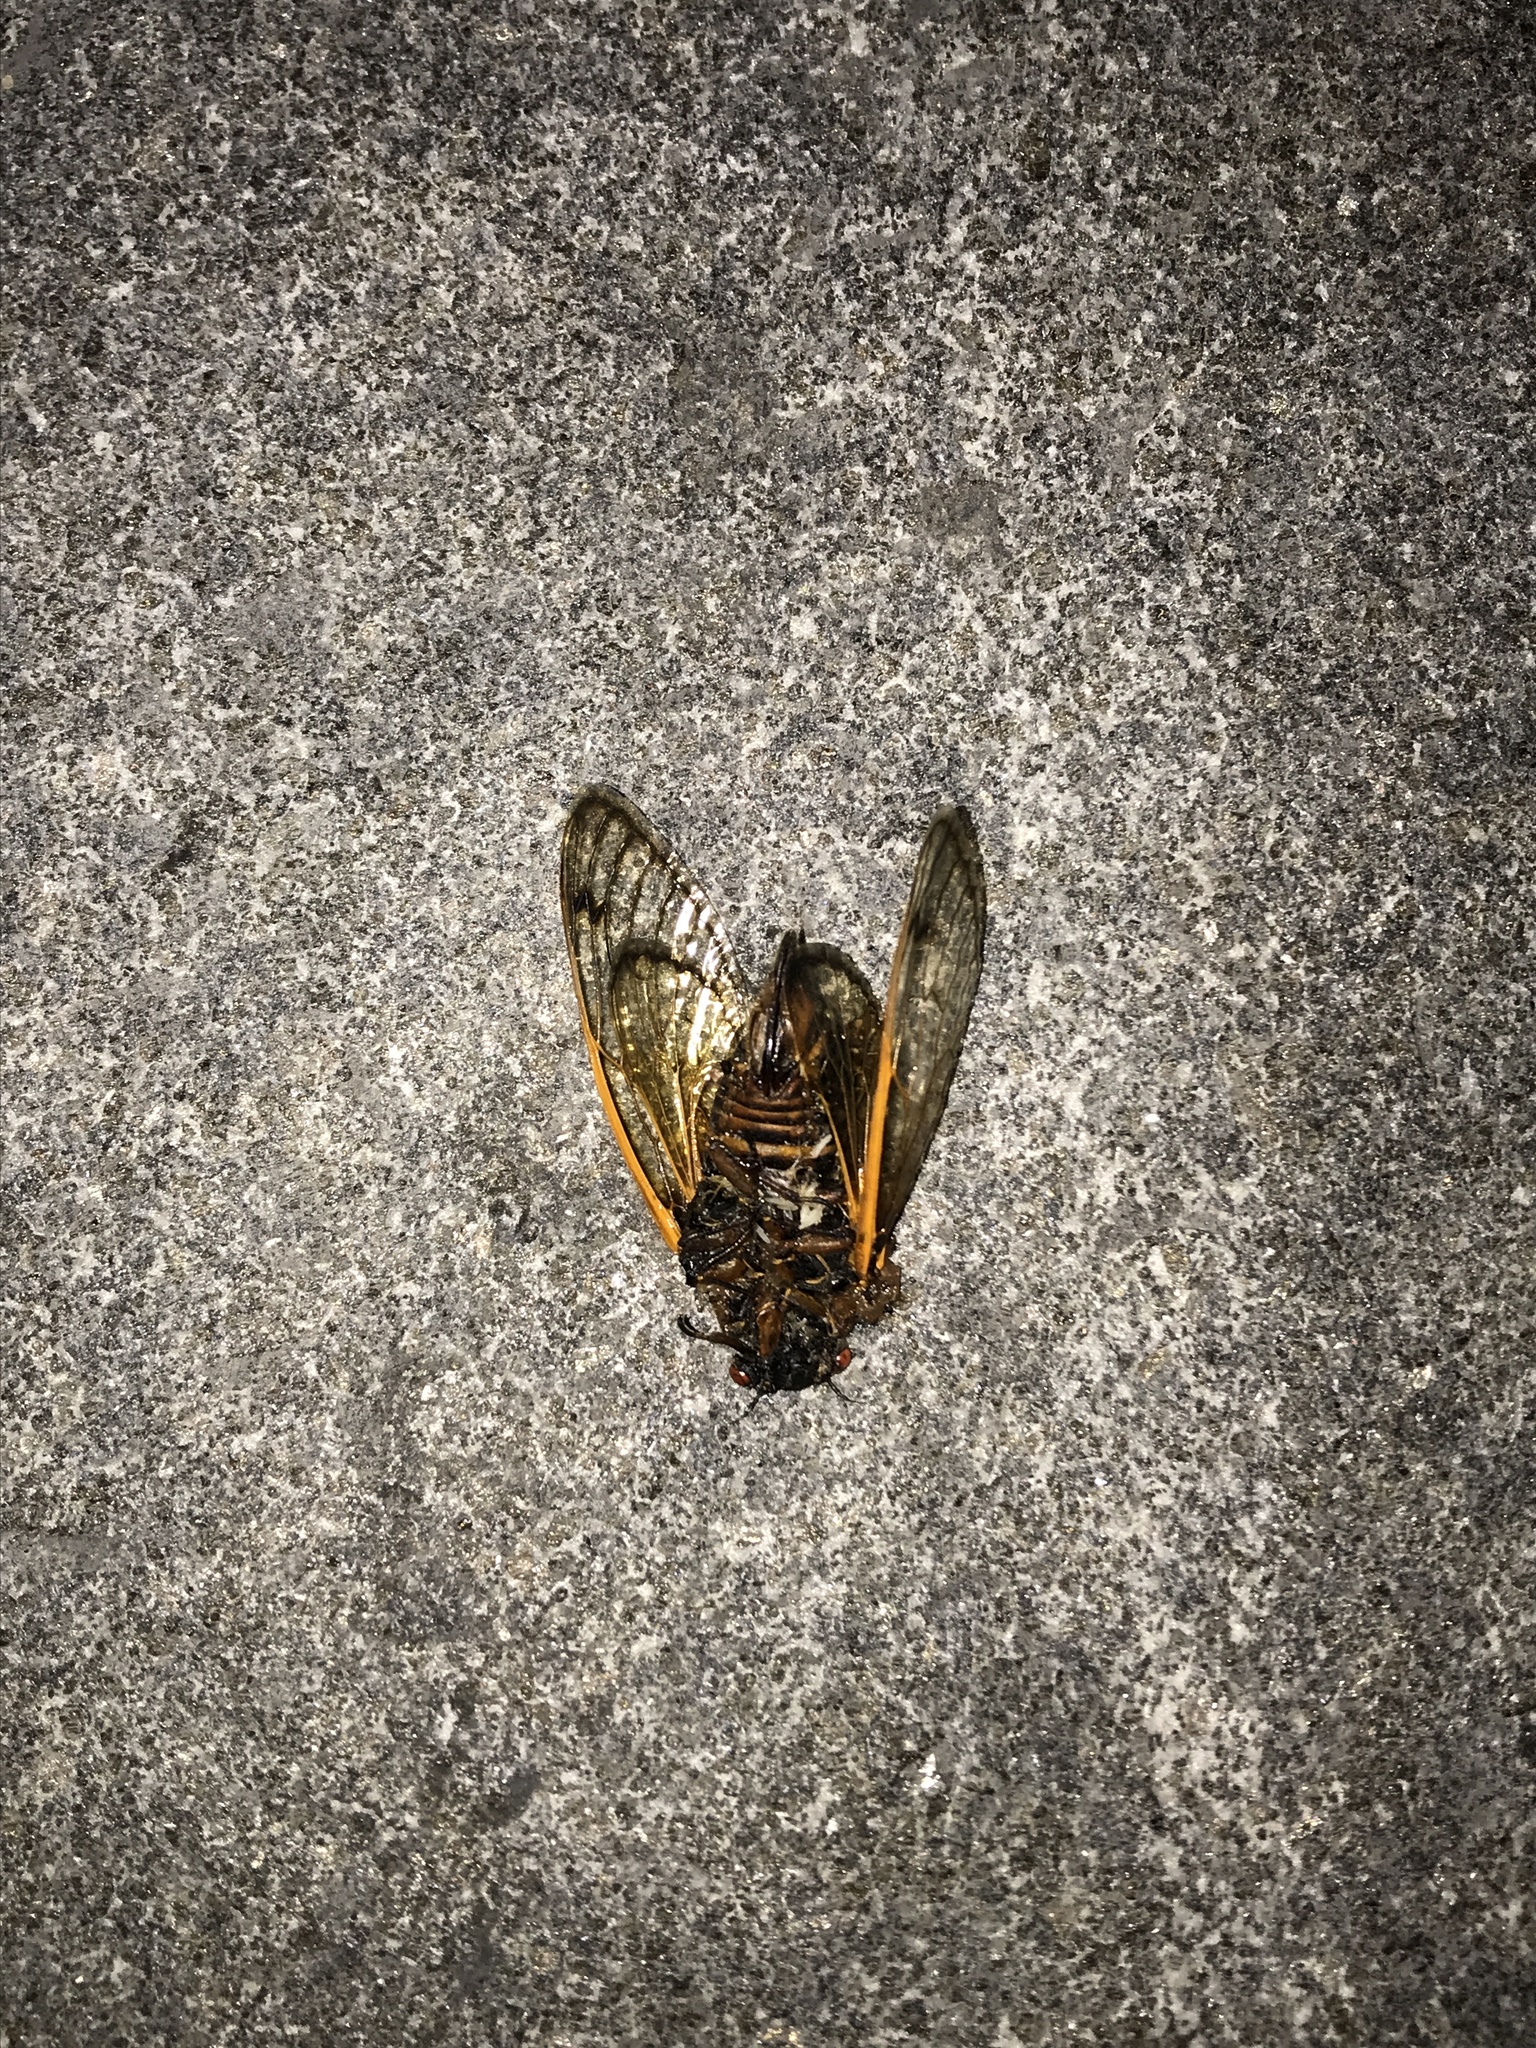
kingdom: Animalia
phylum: Arthropoda
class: Insecta
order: Hemiptera
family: Cicadidae
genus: Magicicada
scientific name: Magicicada septendecim
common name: Periodical cicada
